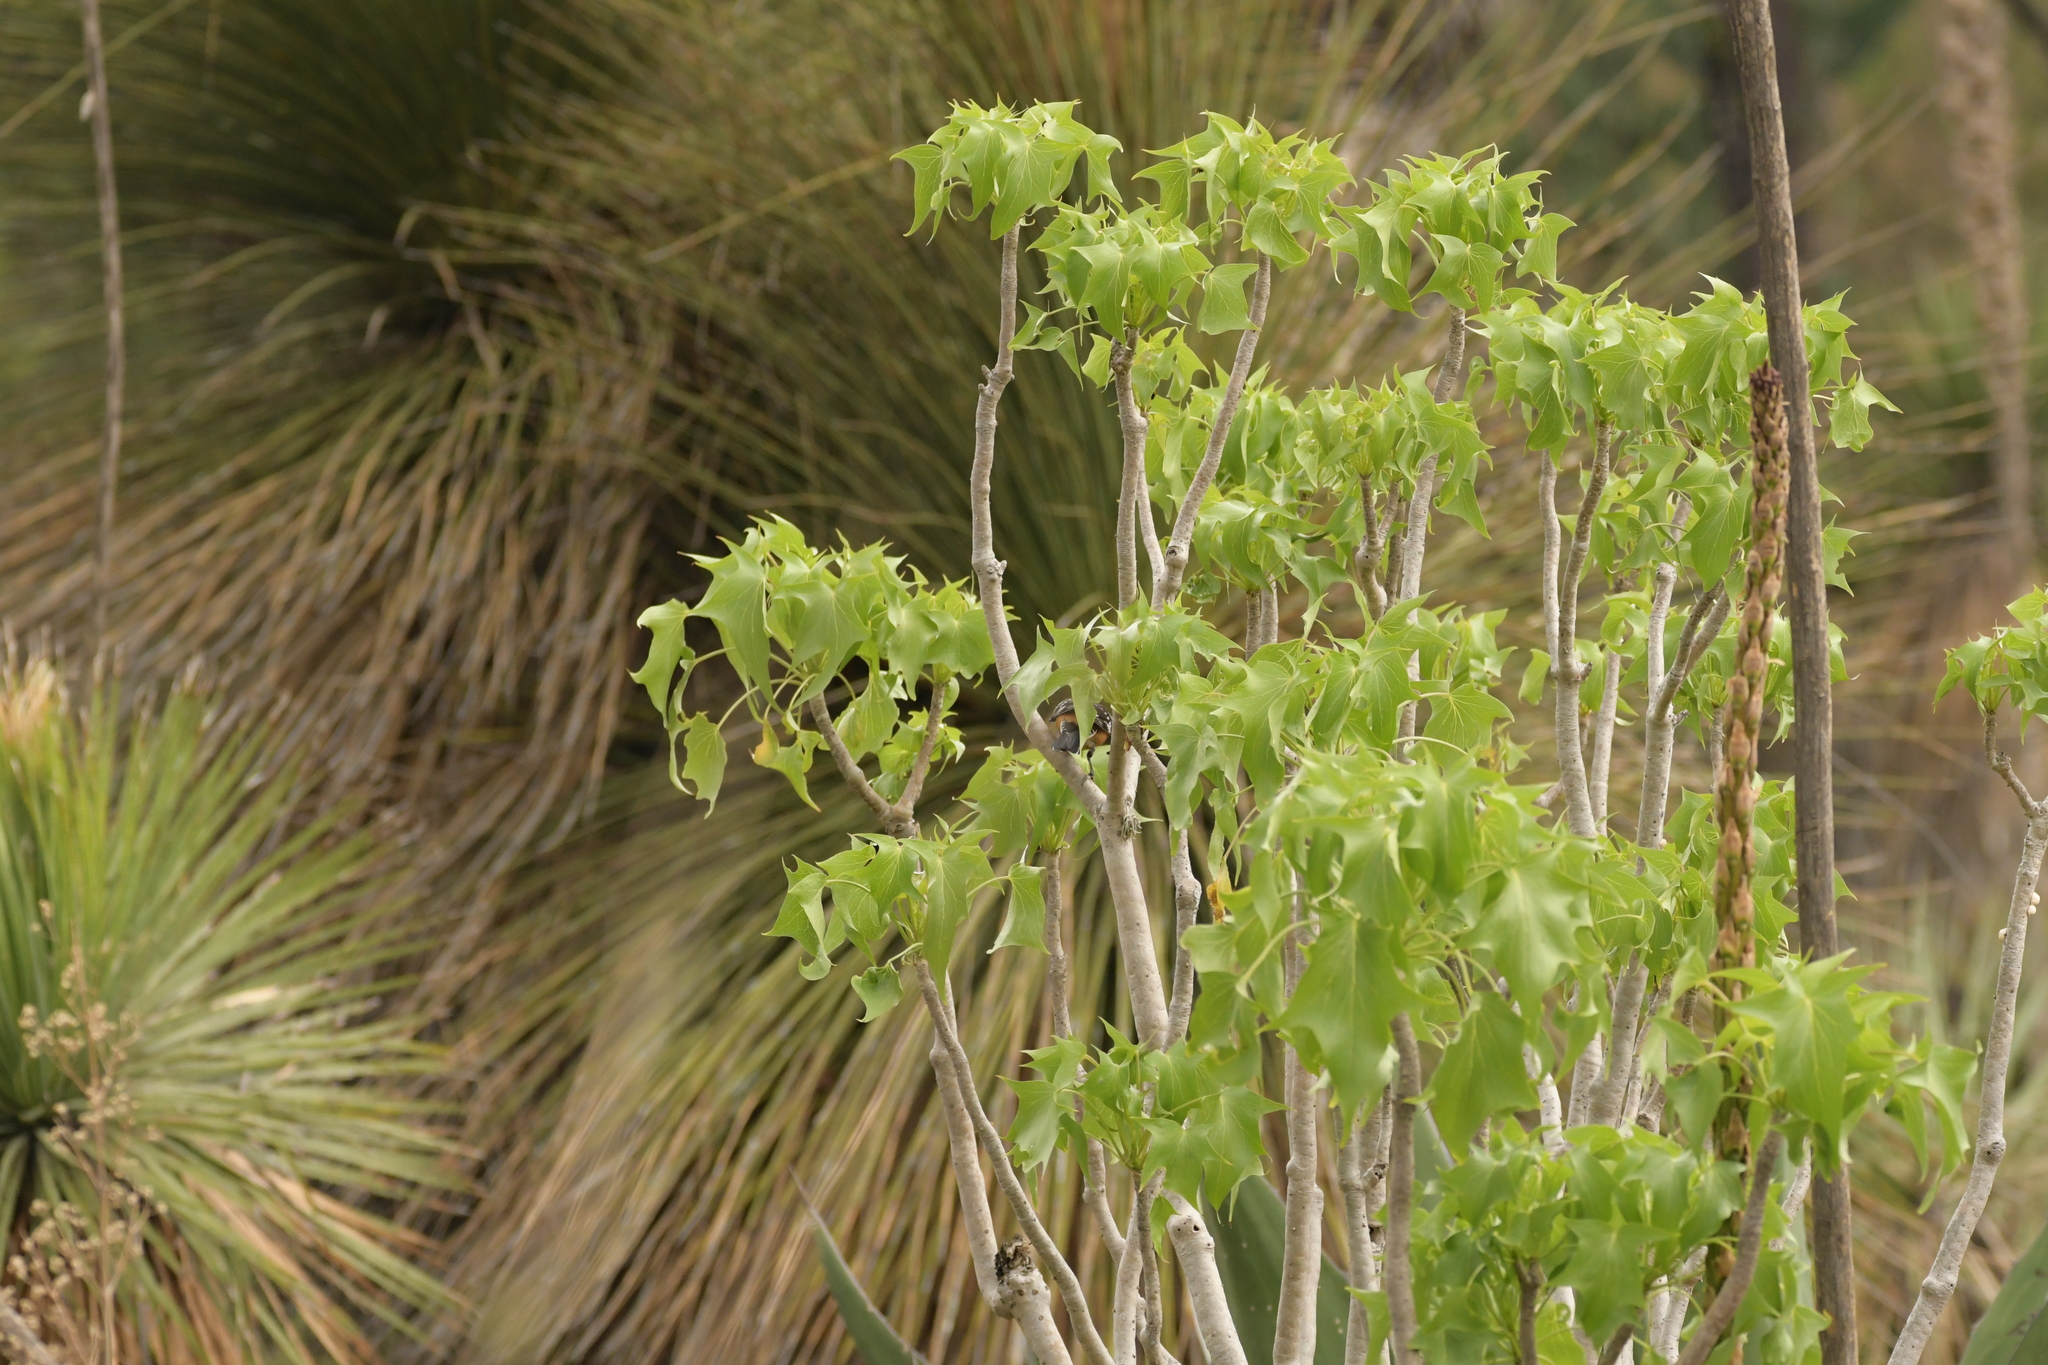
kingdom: Animalia
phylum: Chordata
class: Aves
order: Passeriformes
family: Cardinalidae
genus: Pheucticus
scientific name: Pheucticus melanocephalus
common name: Black-headed grosbeak
